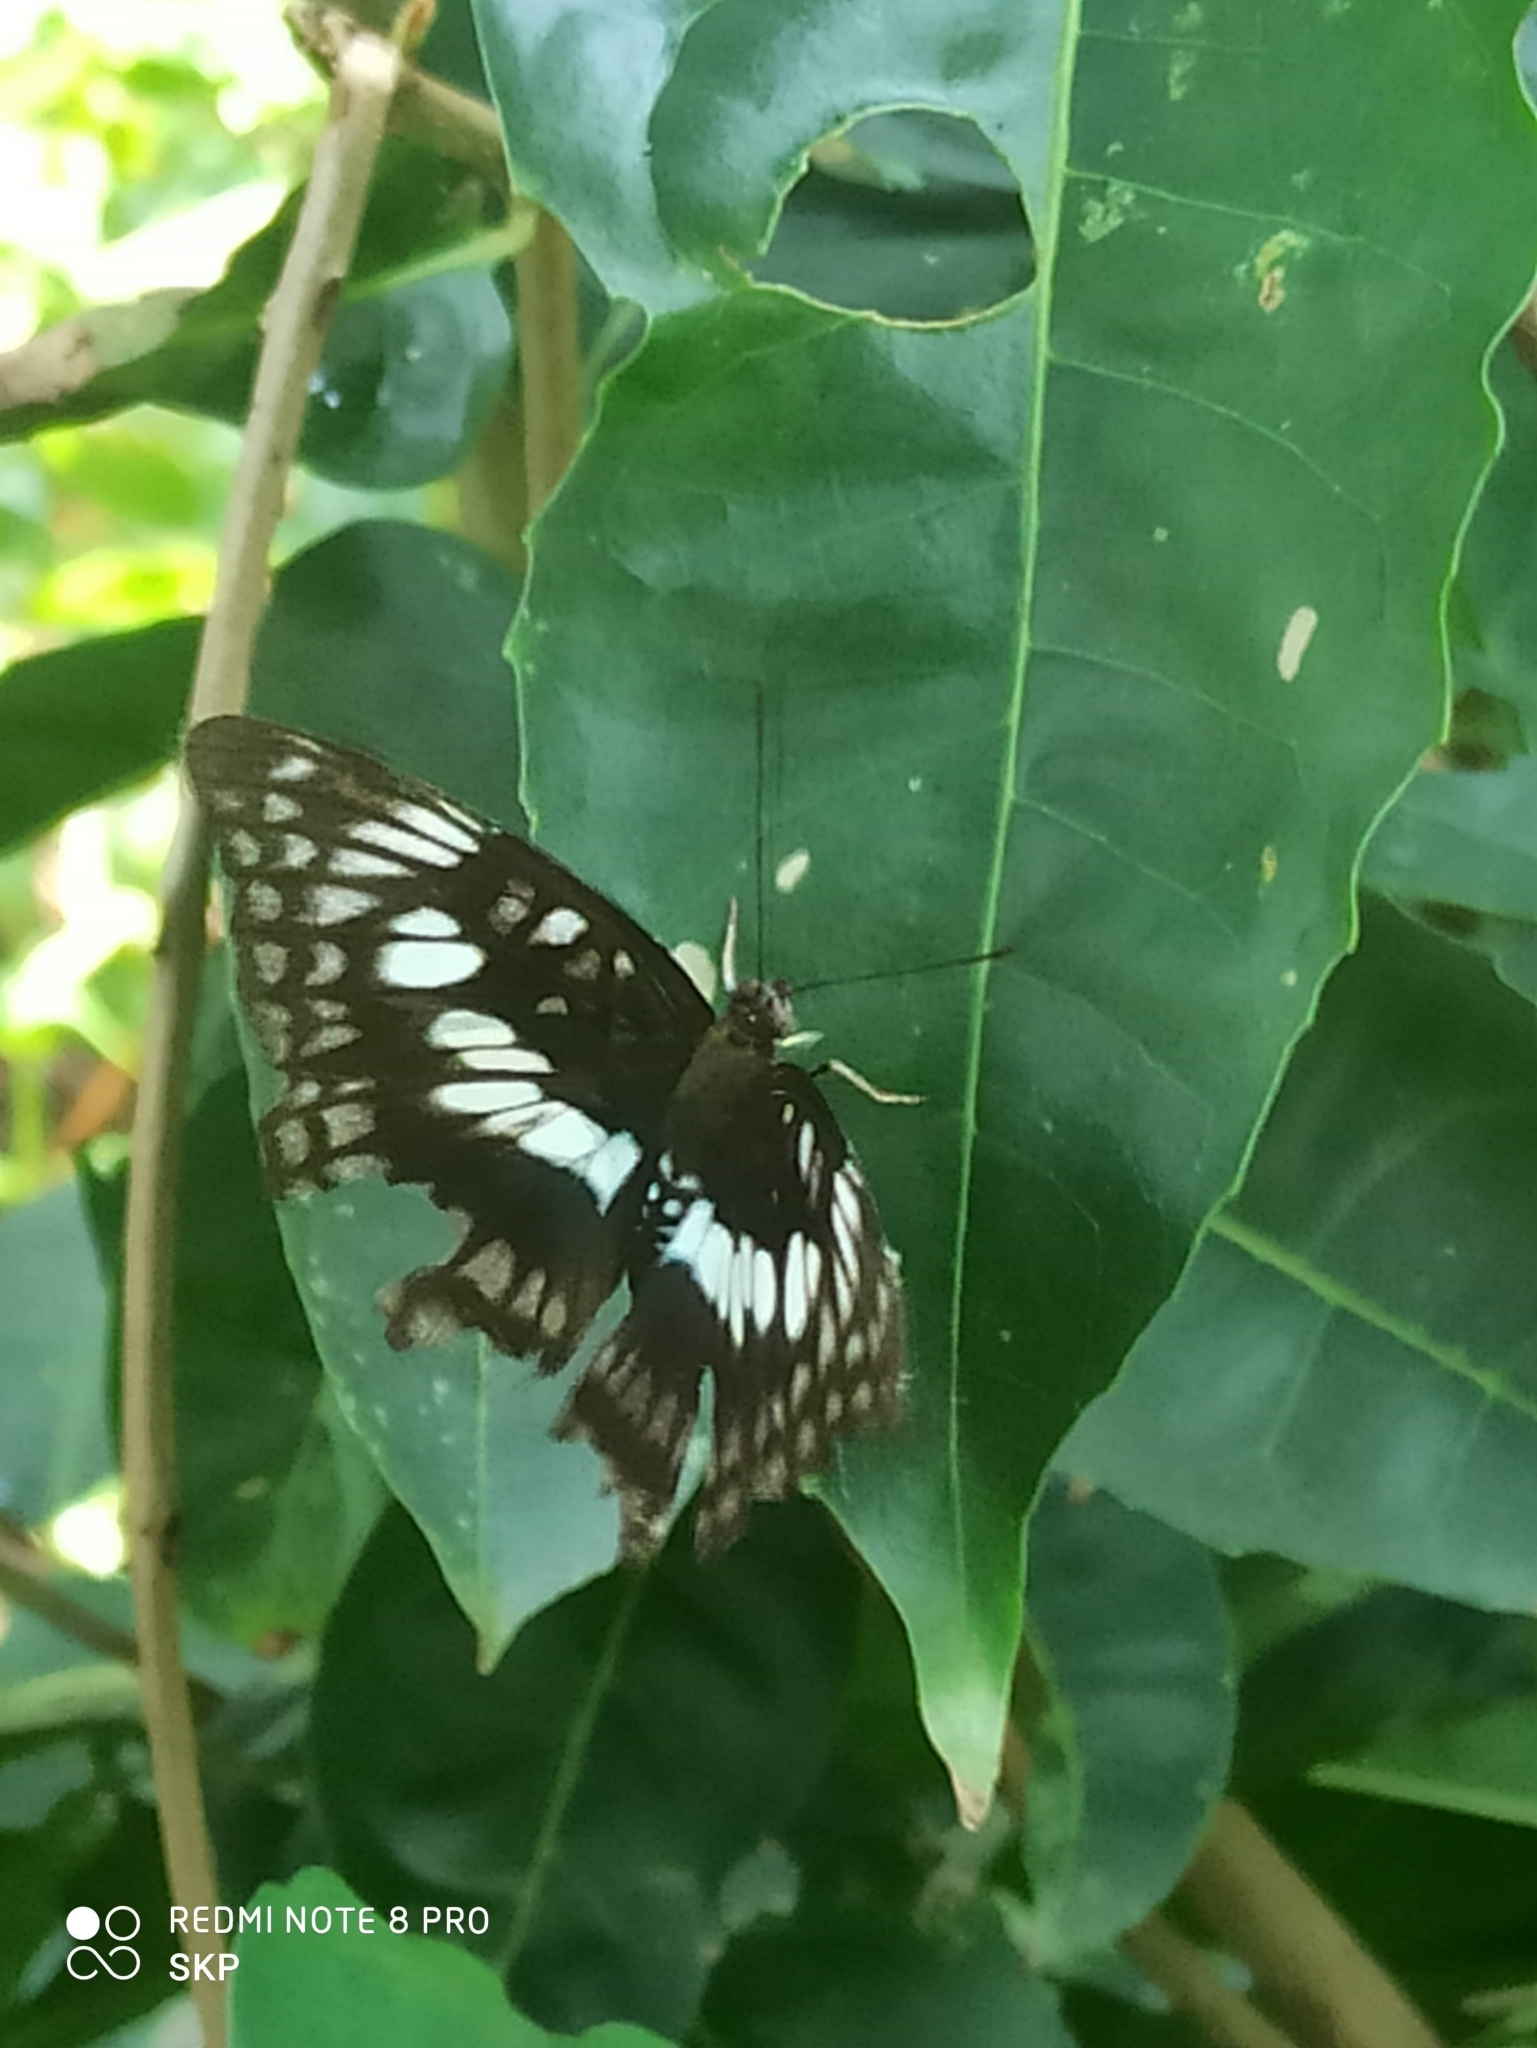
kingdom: Animalia
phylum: Arthropoda
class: Insecta
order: Lepidoptera
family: Nymphalidae
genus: Parathyma
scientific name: Parathyma ranga
